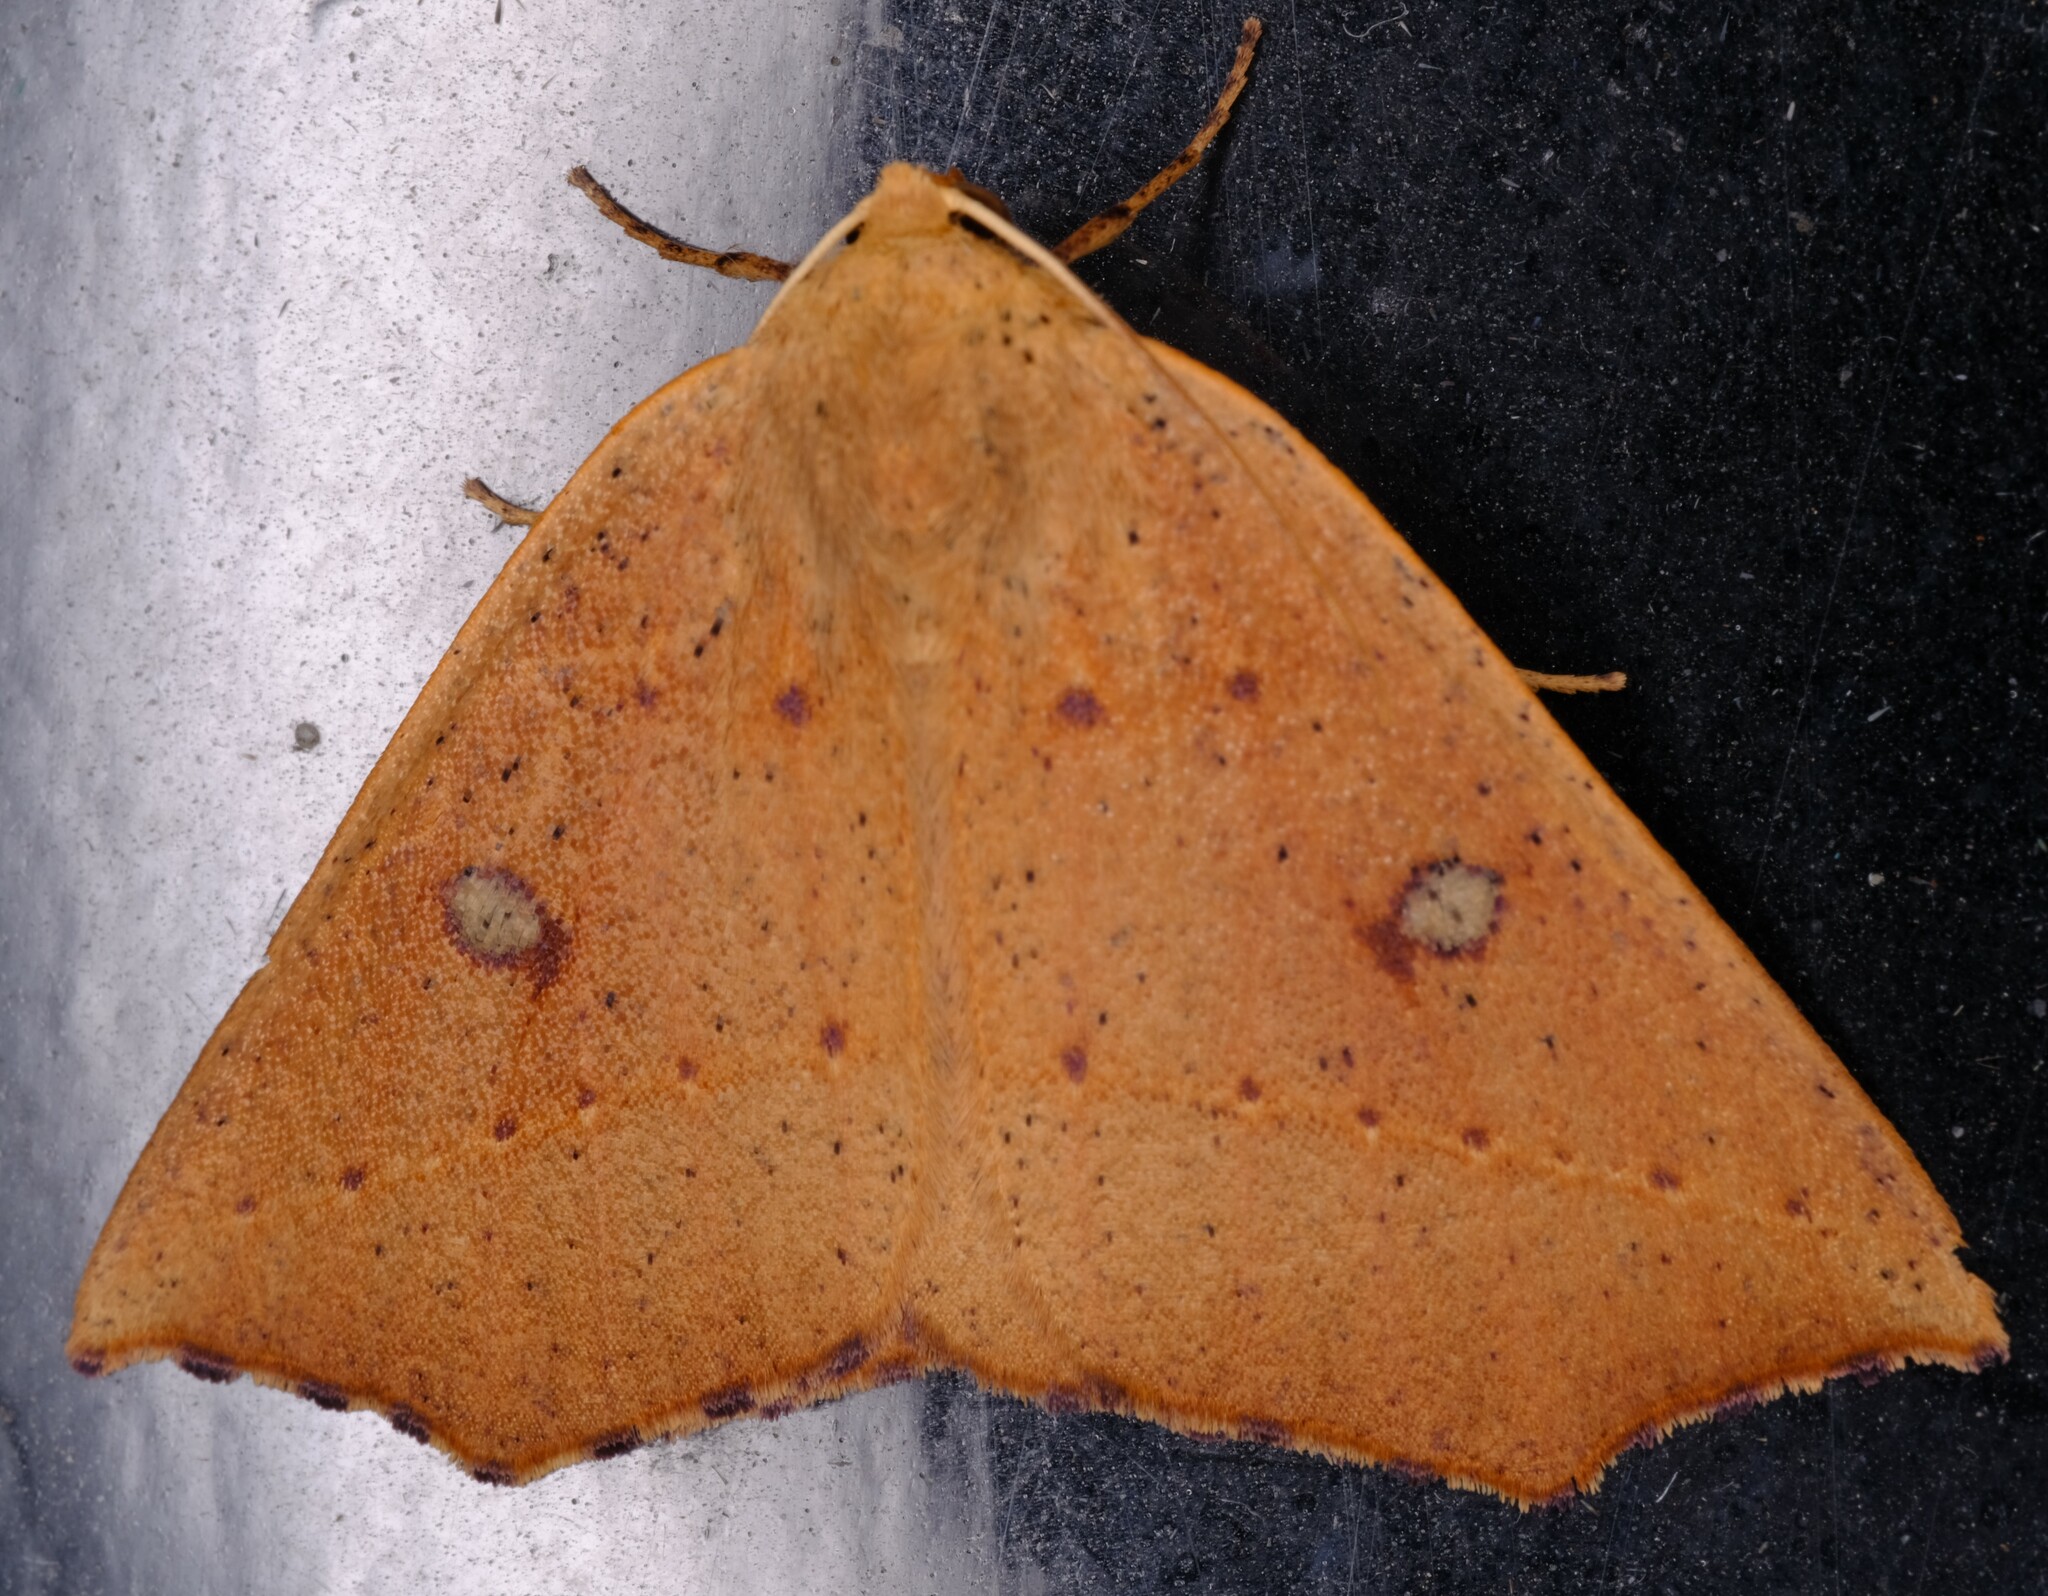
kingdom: Animalia
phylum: Arthropoda
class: Insecta
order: Lepidoptera
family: Geometridae
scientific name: Geometridae
